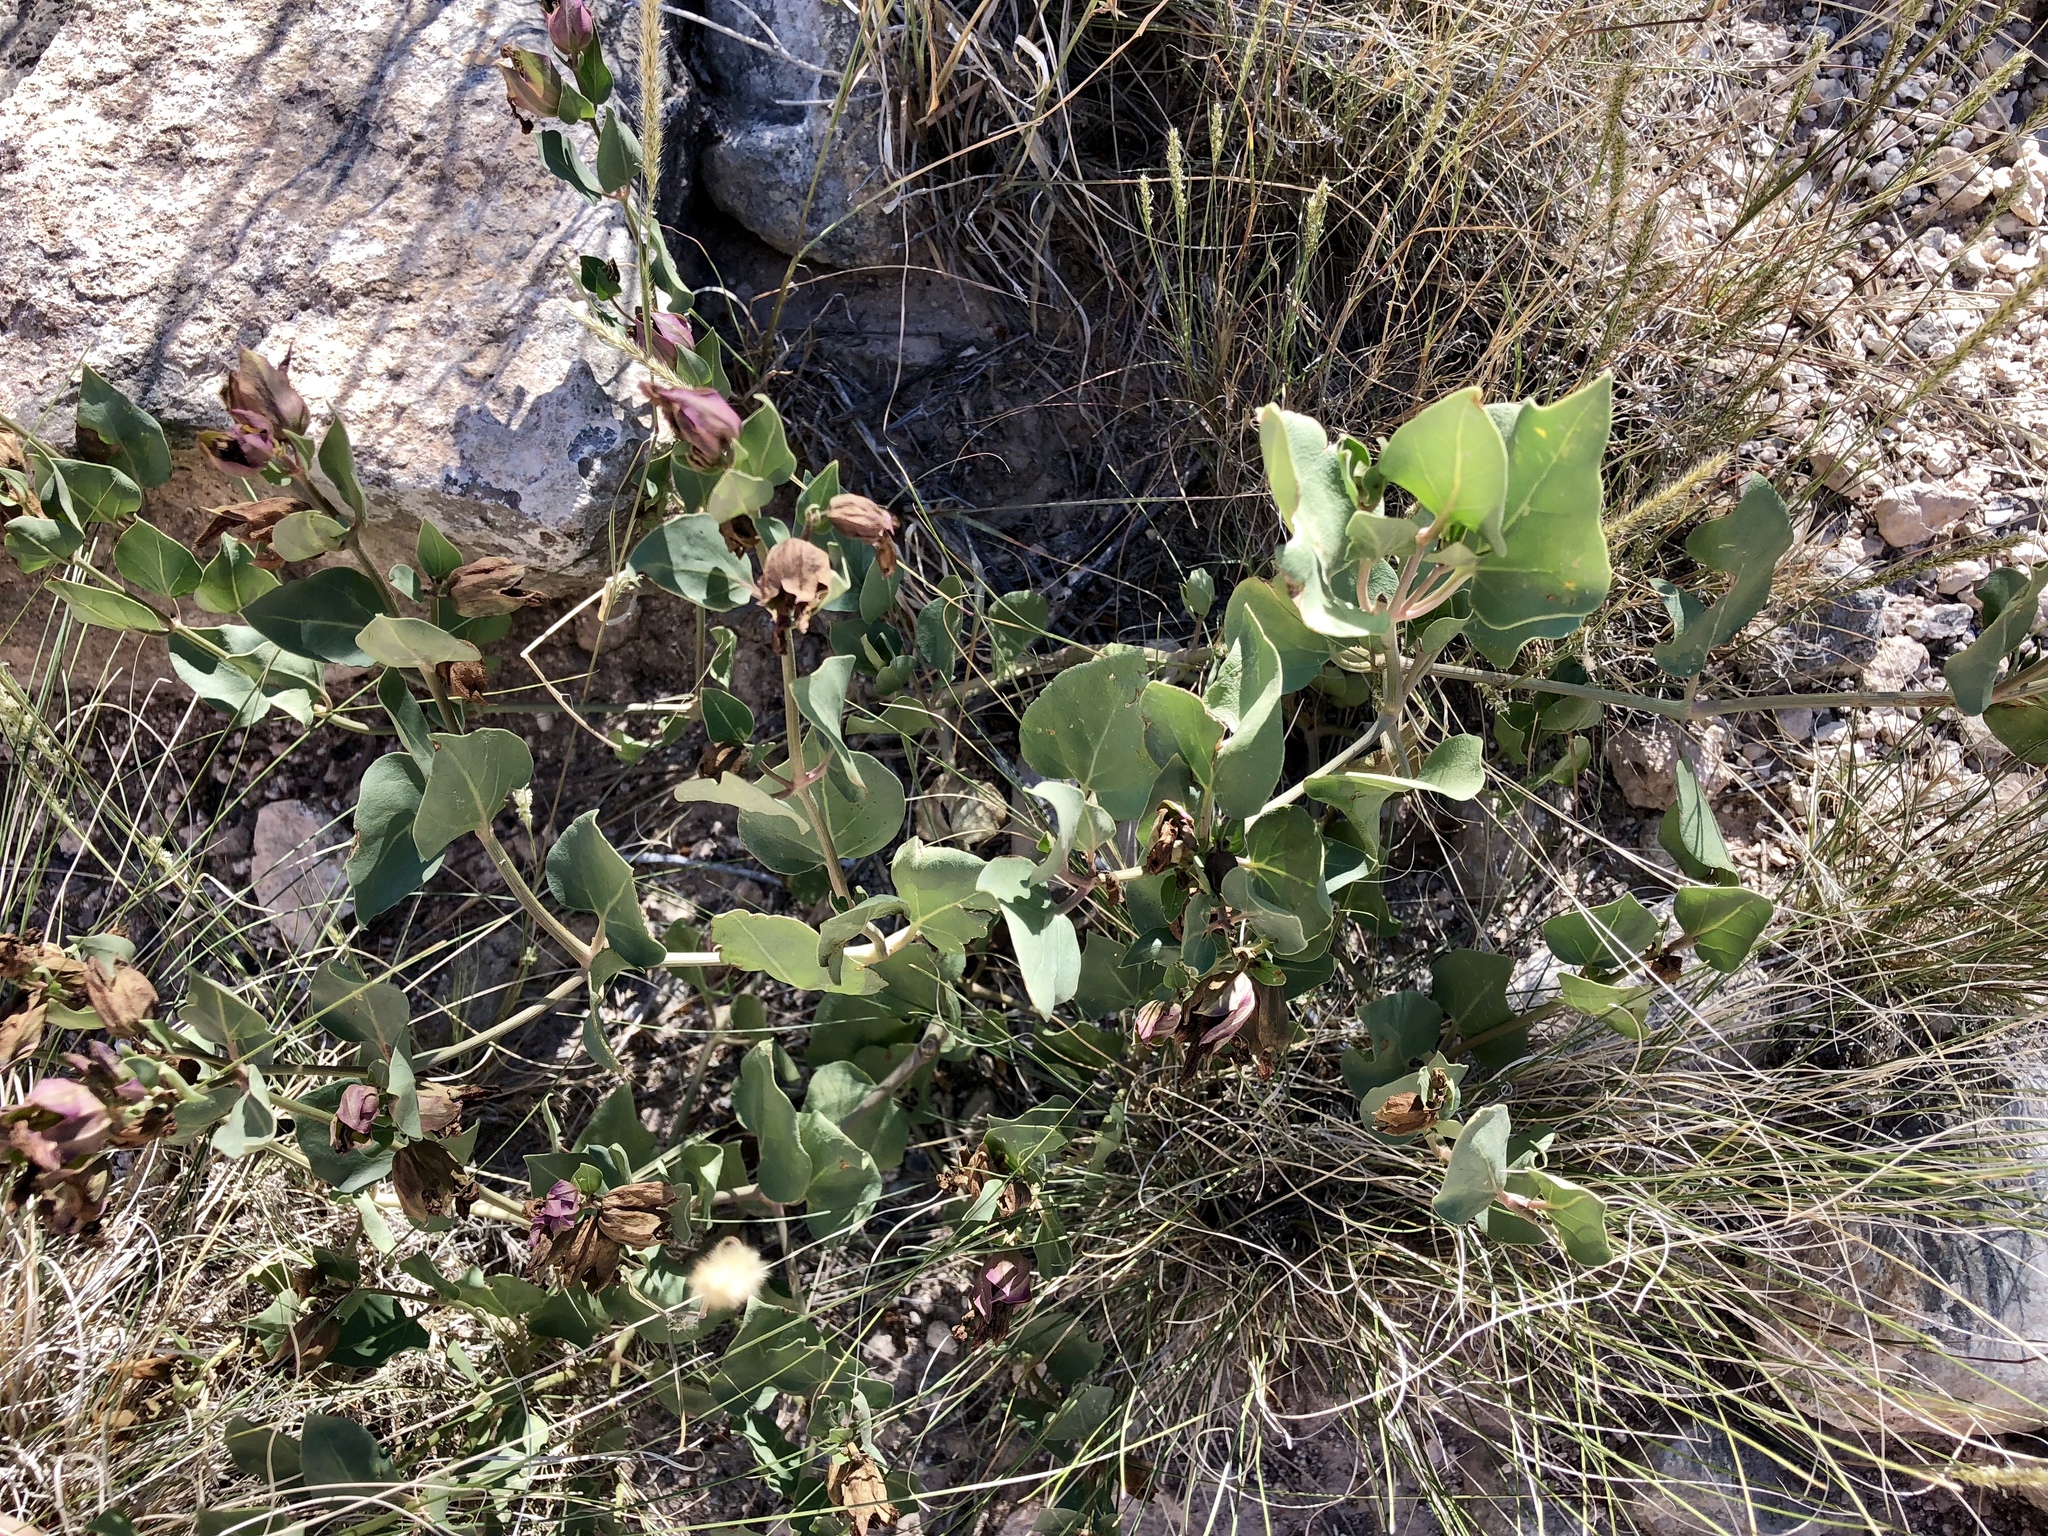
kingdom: Plantae
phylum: Tracheophyta
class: Magnoliopsida
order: Caryophyllales
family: Nyctaginaceae
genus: Mirabilis
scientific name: Mirabilis multiflora
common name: Froebel's four-o'clock
